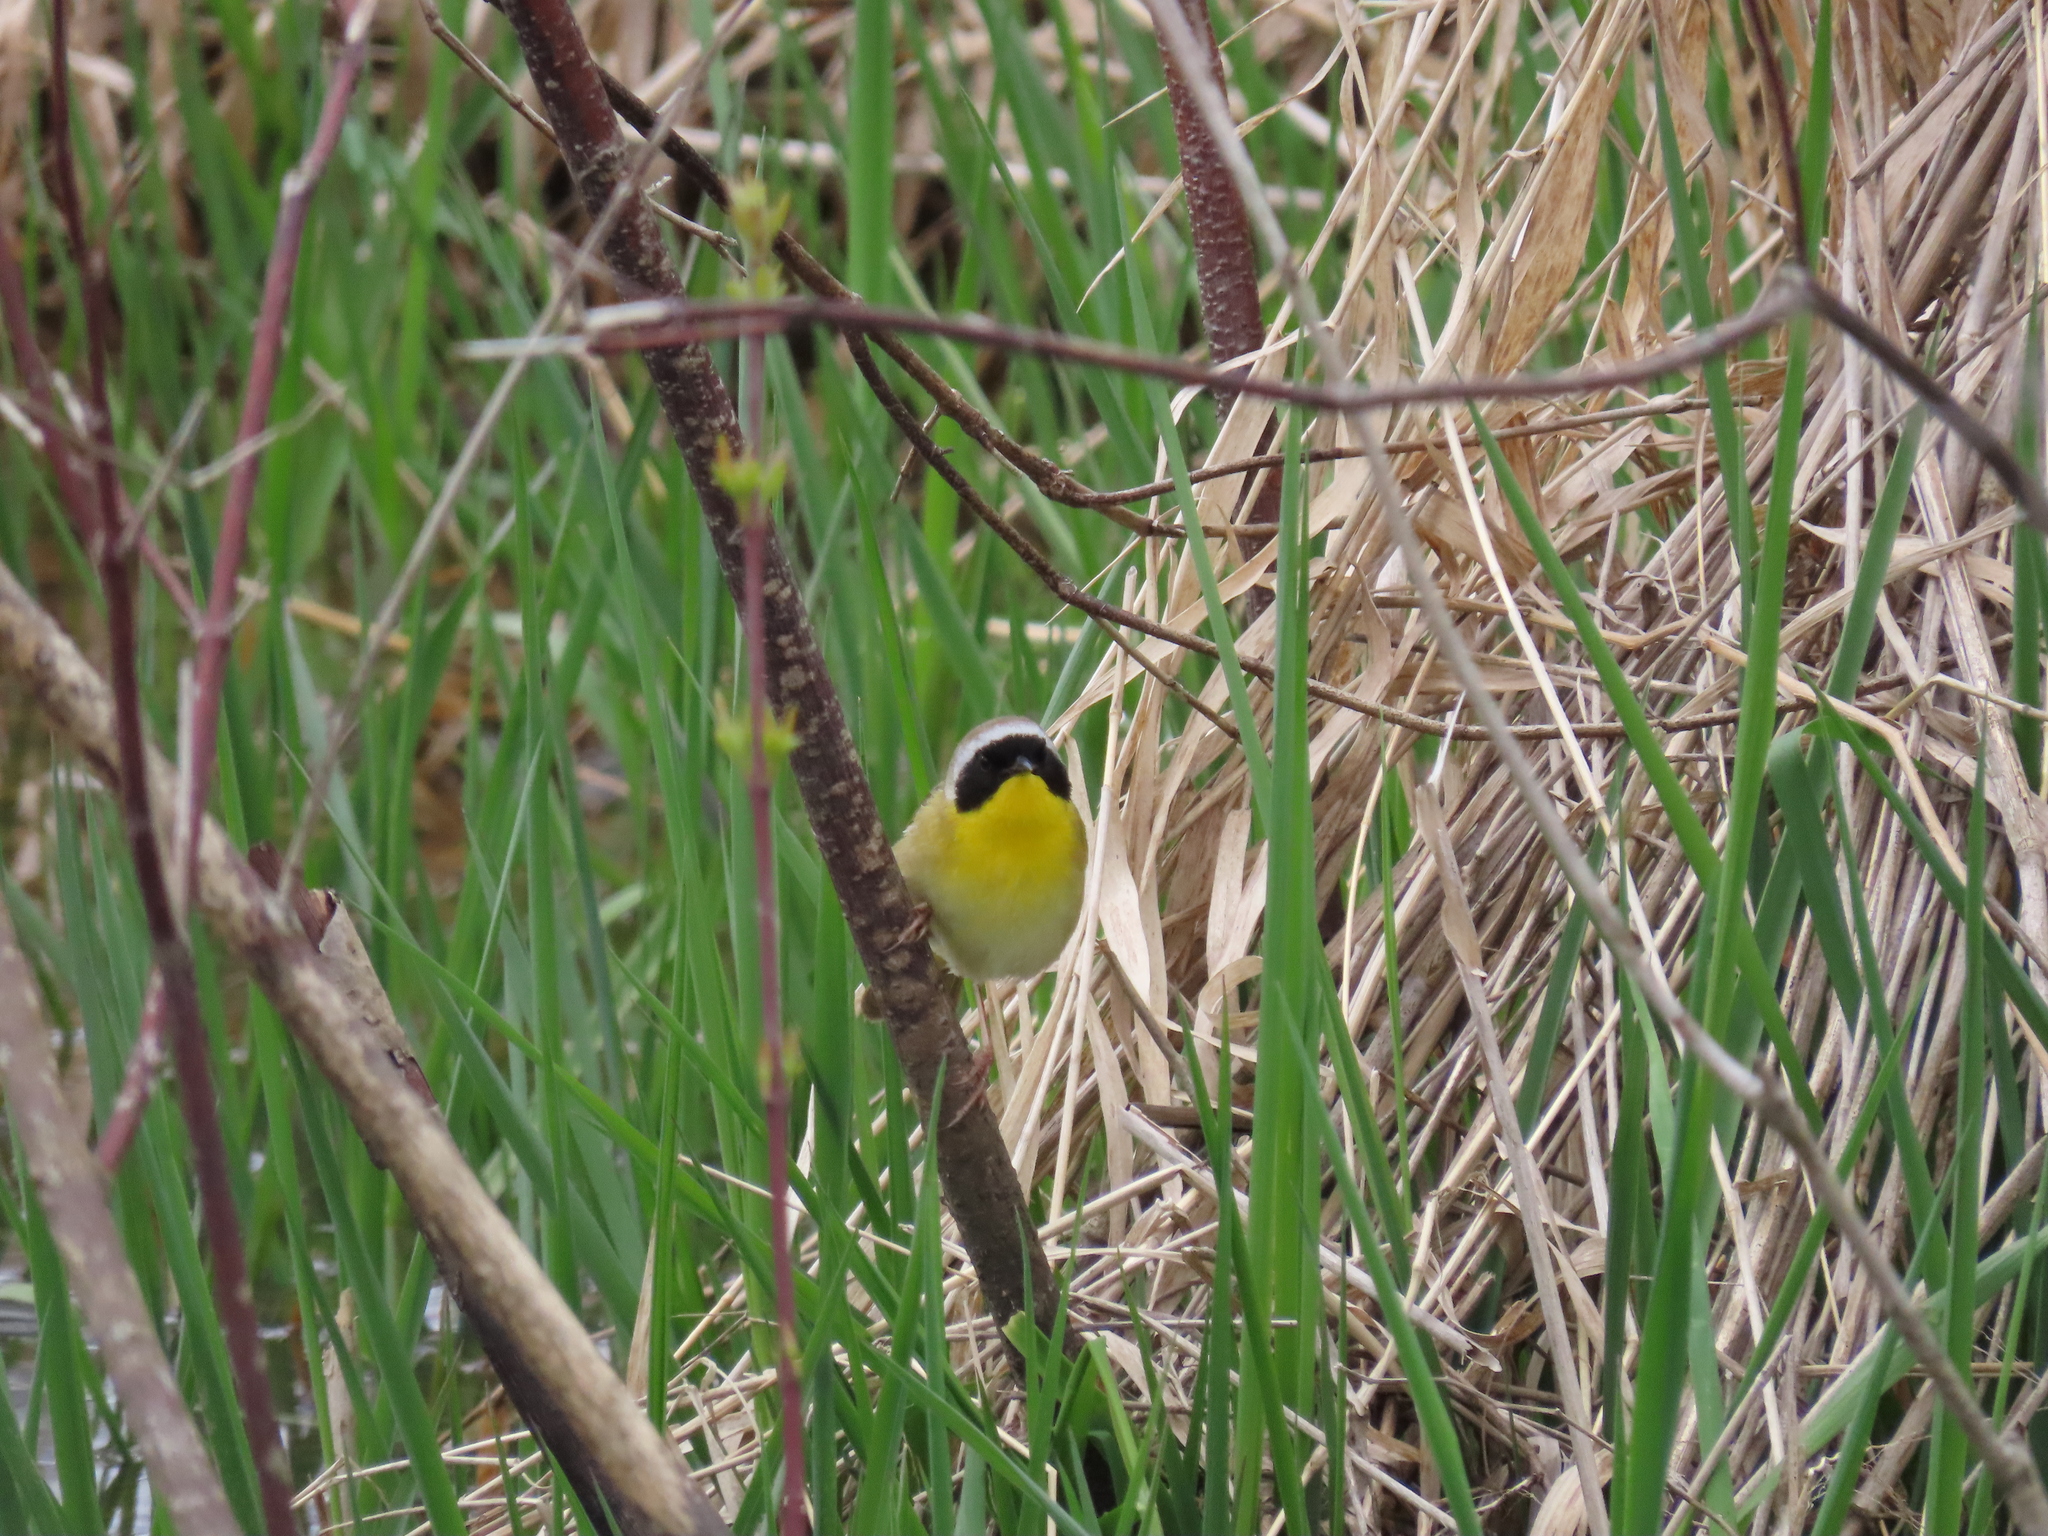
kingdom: Animalia
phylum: Chordata
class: Aves
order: Passeriformes
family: Parulidae
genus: Geothlypis
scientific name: Geothlypis trichas
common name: Common yellowthroat
